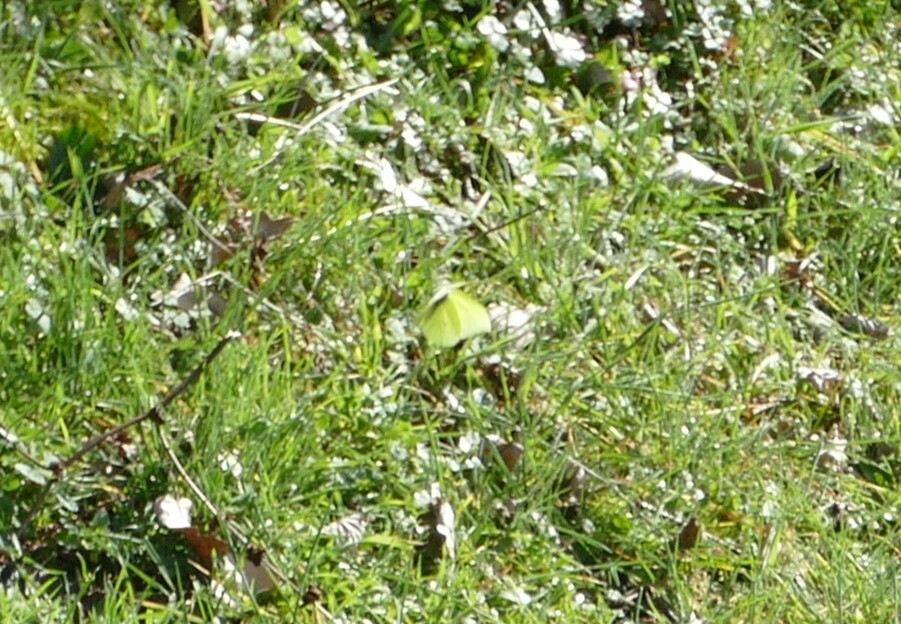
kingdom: Animalia
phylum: Arthropoda
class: Insecta
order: Lepidoptera
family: Pieridae
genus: Gonepteryx
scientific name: Gonepteryx rhamni
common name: Brimstone
